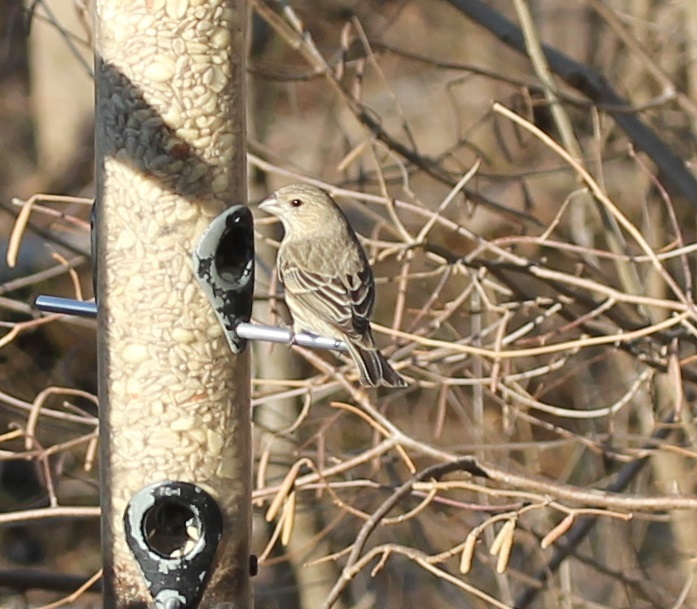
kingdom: Animalia
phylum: Chordata
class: Aves
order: Passeriformes
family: Fringillidae
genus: Haemorhous
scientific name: Haemorhous mexicanus
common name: House finch
